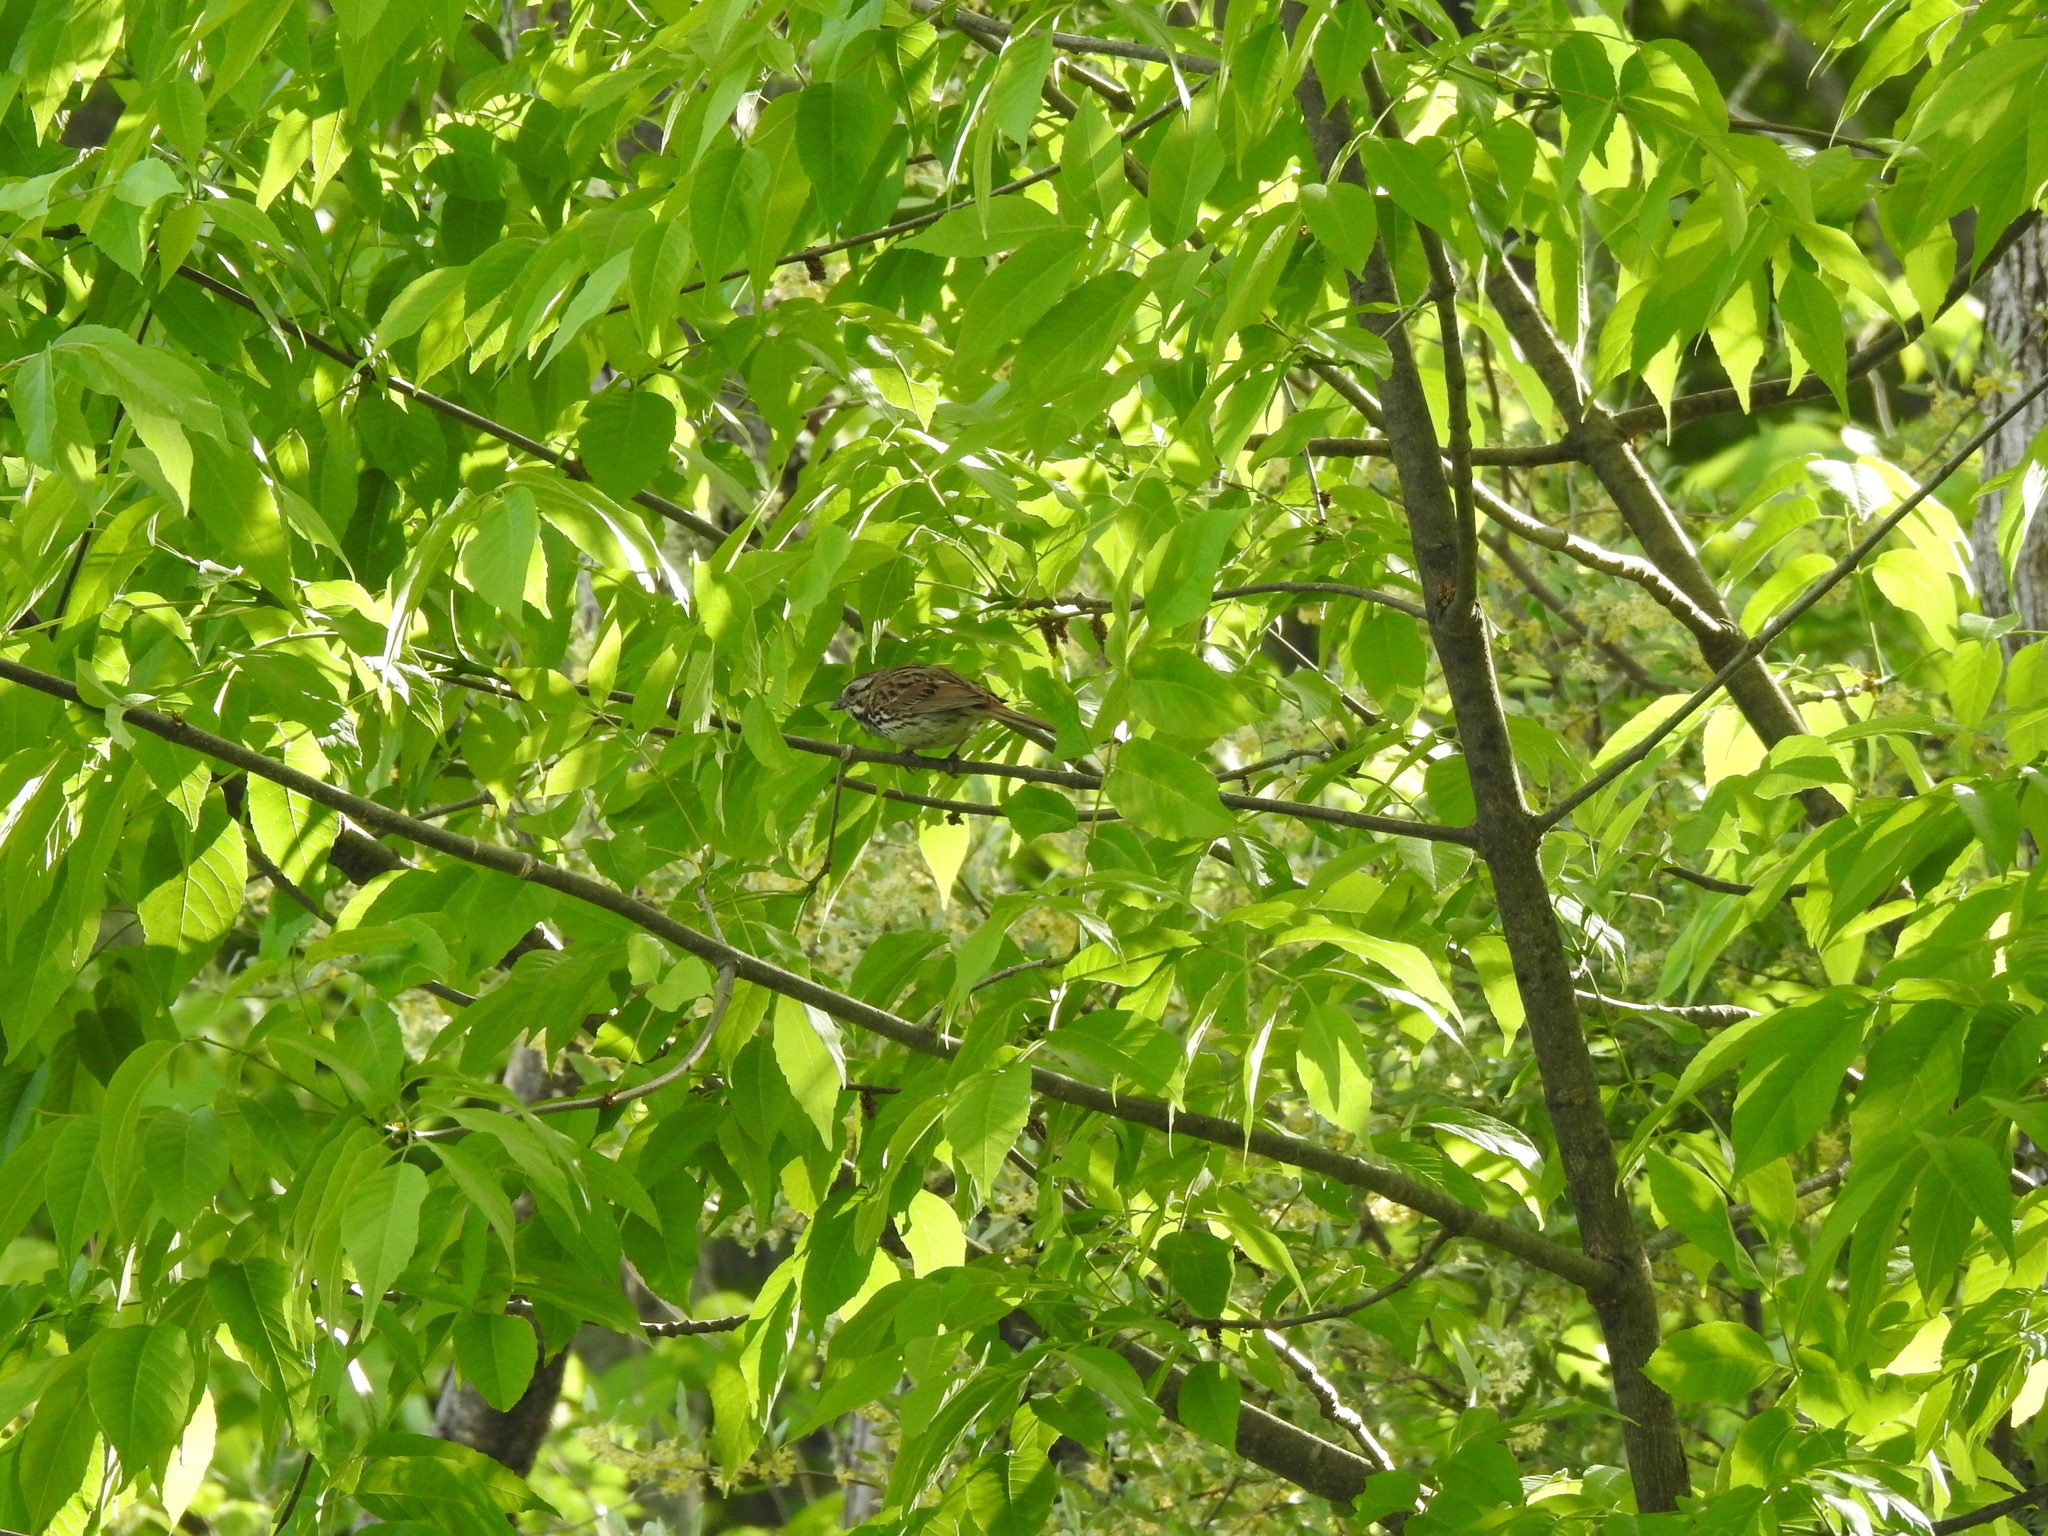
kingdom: Animalia
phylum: Chordata
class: Aves
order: Passeriformes
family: Passerellidae
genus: Melospiza
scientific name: Melospiza melodia
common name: Song sparrow
